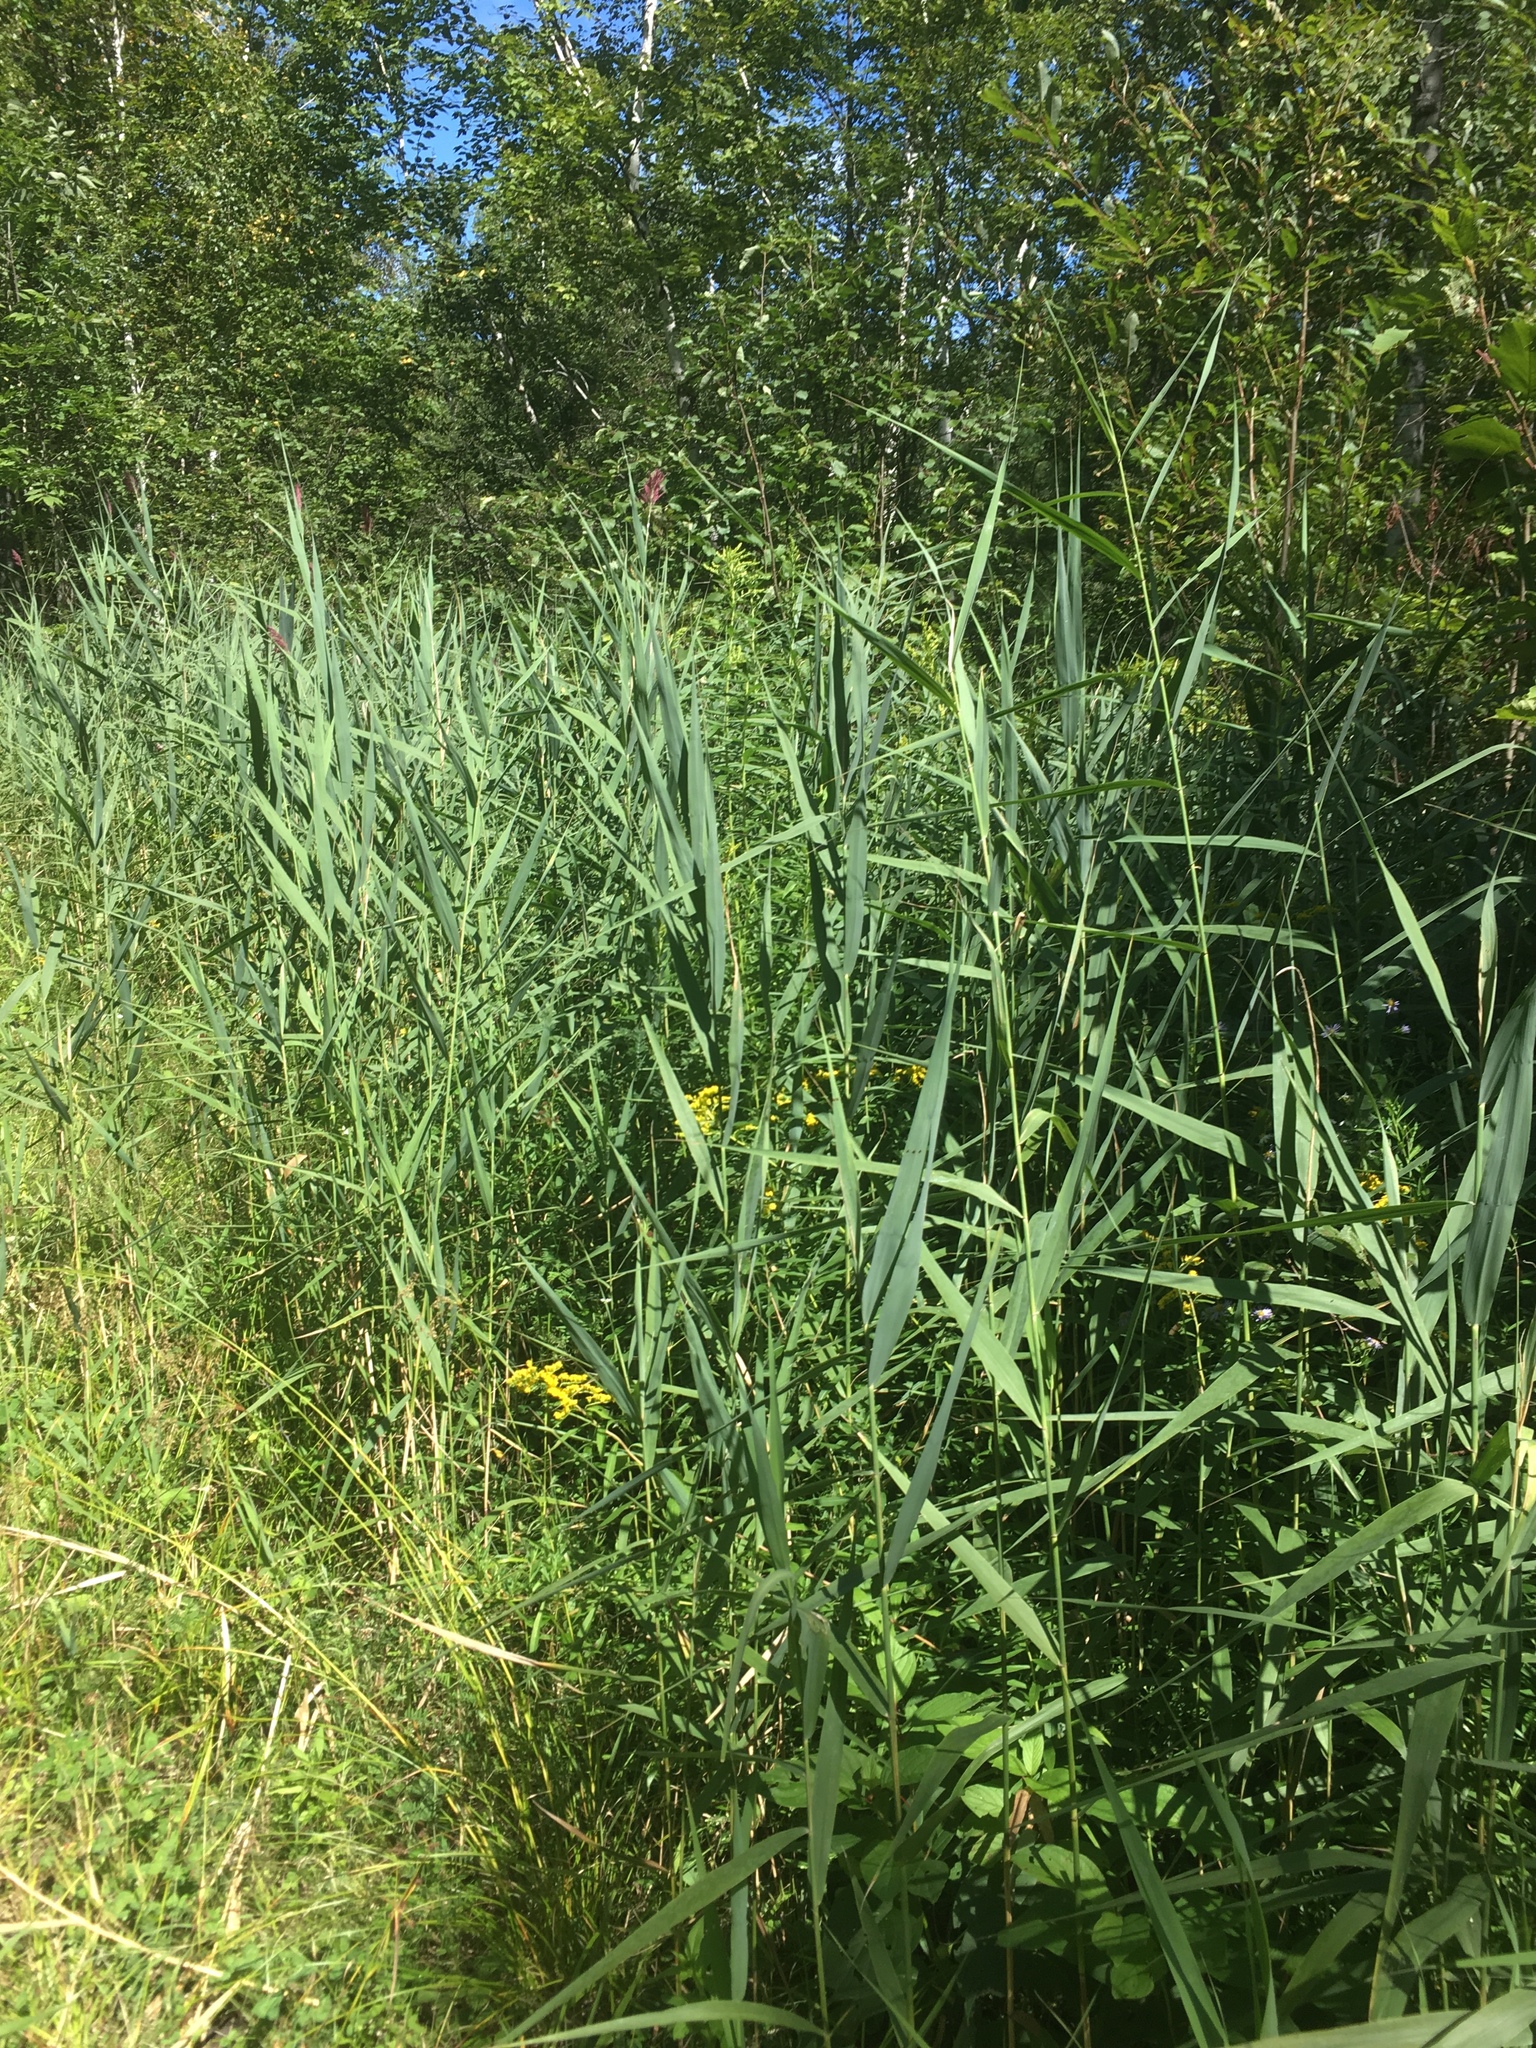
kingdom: Plantae
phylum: Tracheophyta
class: Liliopsida
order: Poales
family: Poaceae
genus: Phragmites
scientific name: Phragmites australis
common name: Common reed
